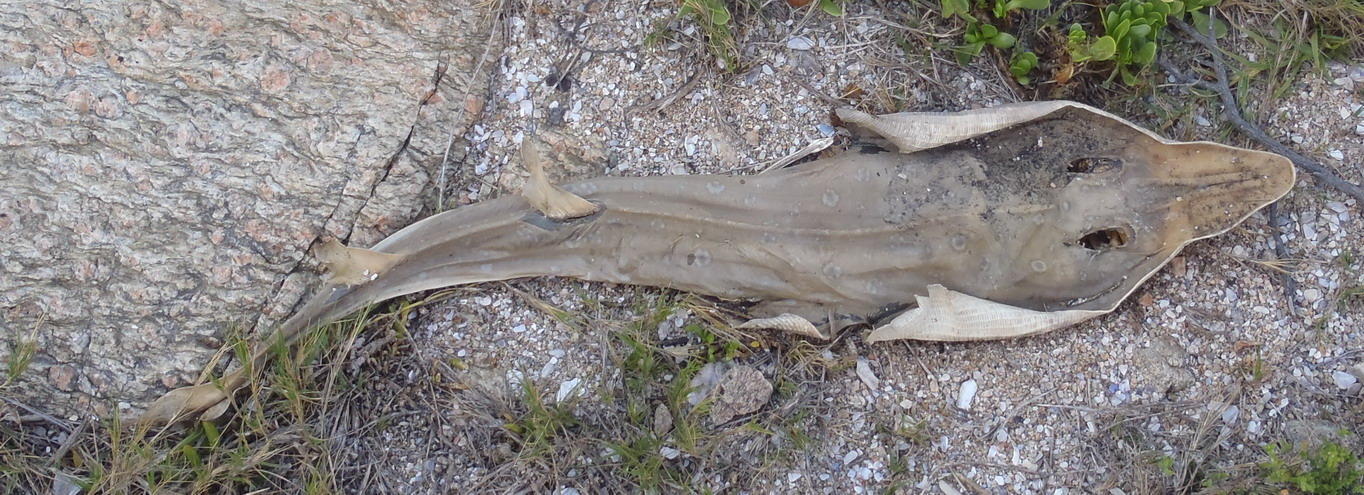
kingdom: Animalia
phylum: Chordata
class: Elasmobranchii
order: Rhinopristiformes
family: Rhinobatidae
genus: Acroteriobatus
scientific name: Acroteriobatus annulatus
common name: Lesser guitarfish
